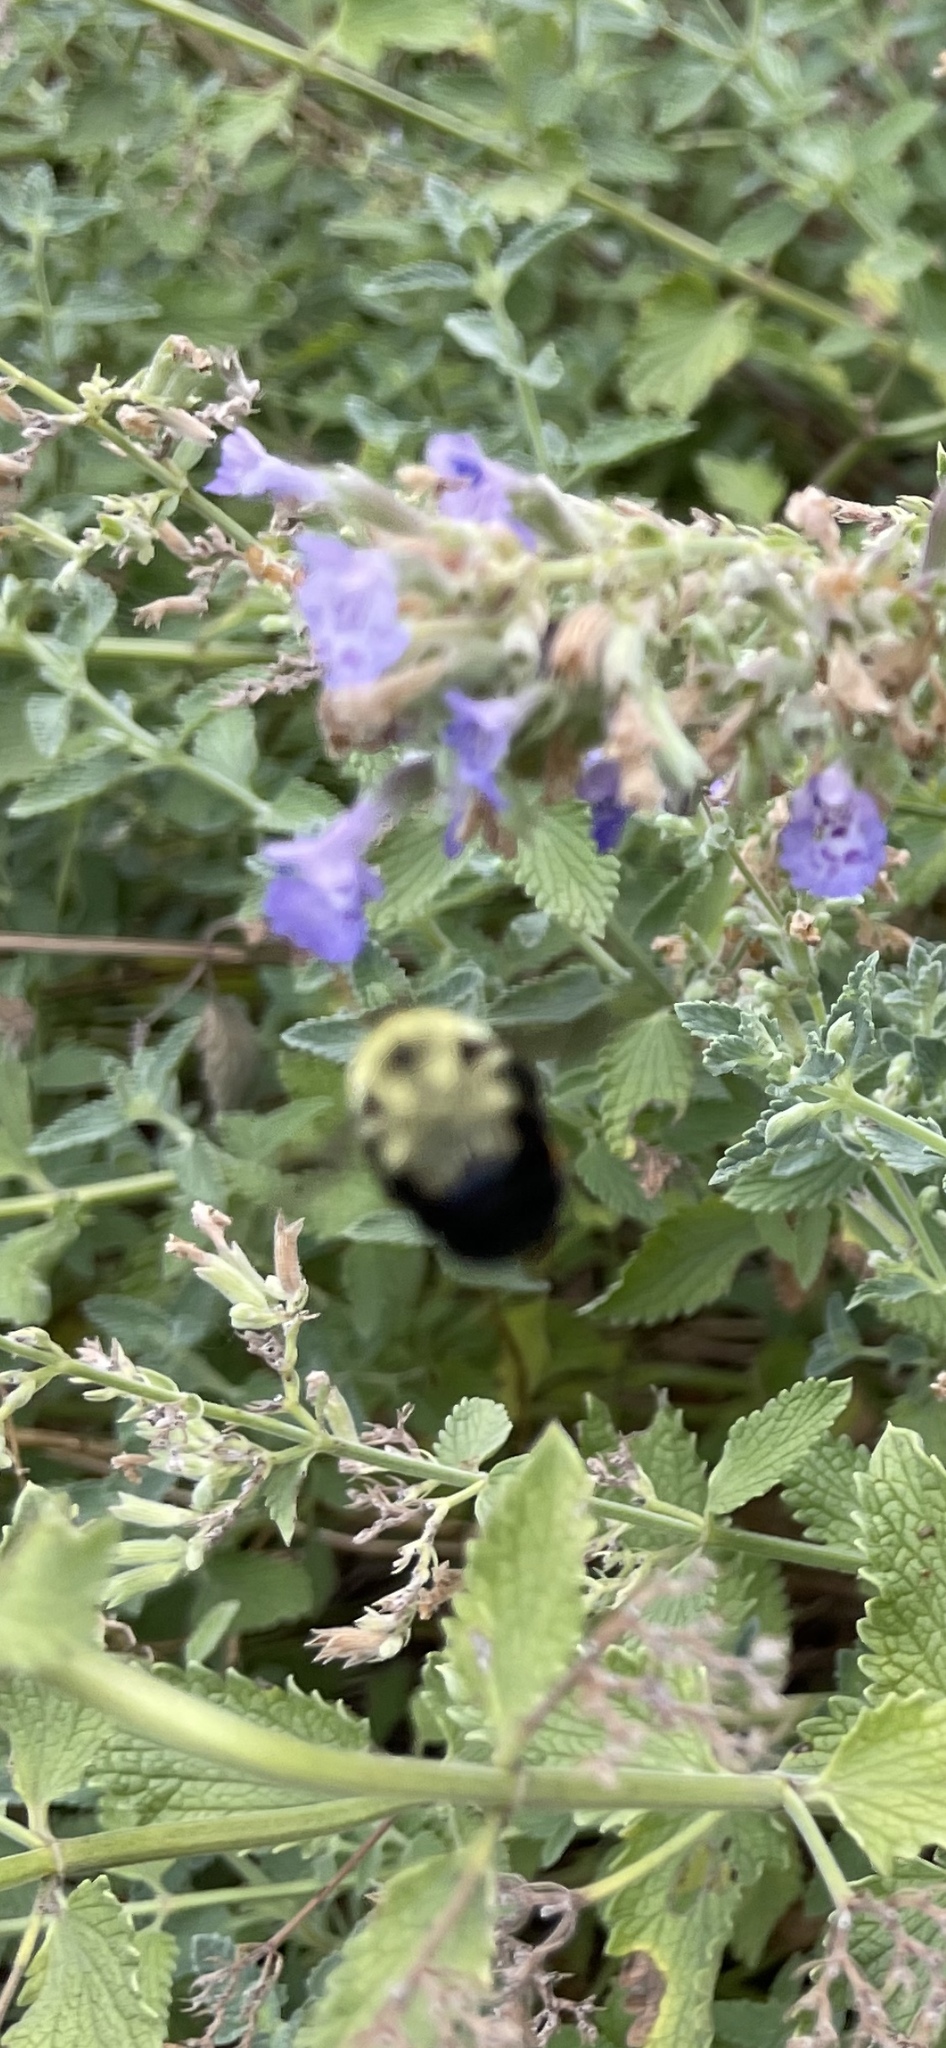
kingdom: Animalia
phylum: Arthropoda
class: Insecta
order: Hymenoptera
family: Apidae
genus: Bombus
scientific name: Bombus bimaculatus
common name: Two-spotted bumble bee
